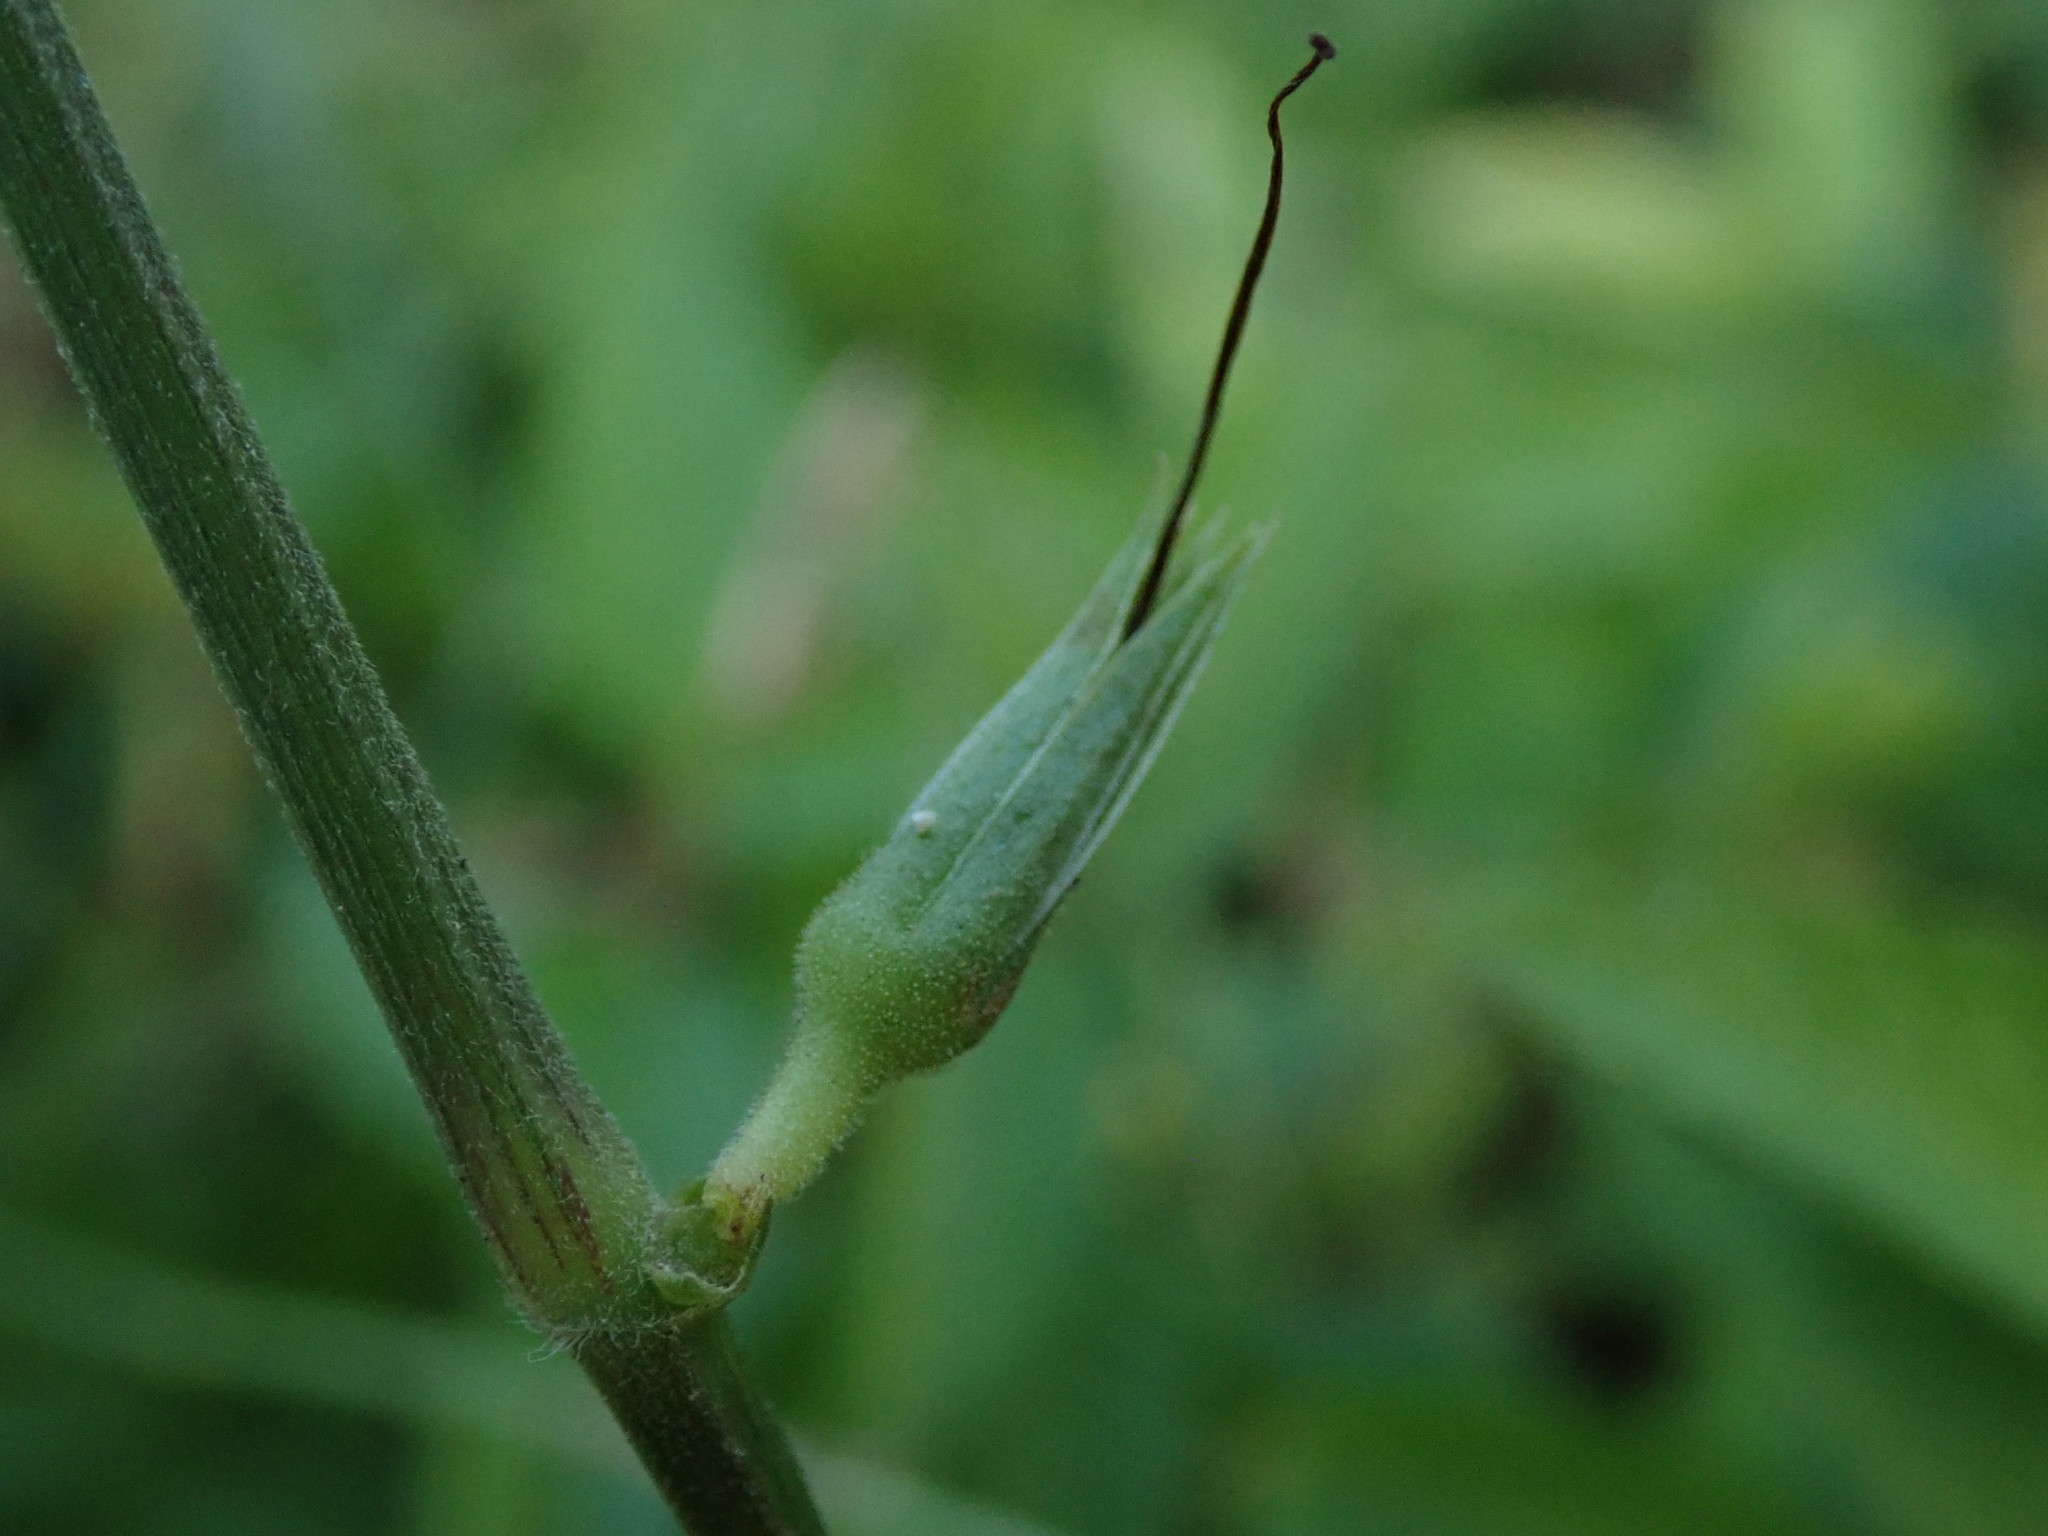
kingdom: Plantae
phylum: Tracheophyta
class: Magnoliopsida
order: Malvales
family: Malvaceae
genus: Corchorus
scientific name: Corchorus aestuans
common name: Jute
